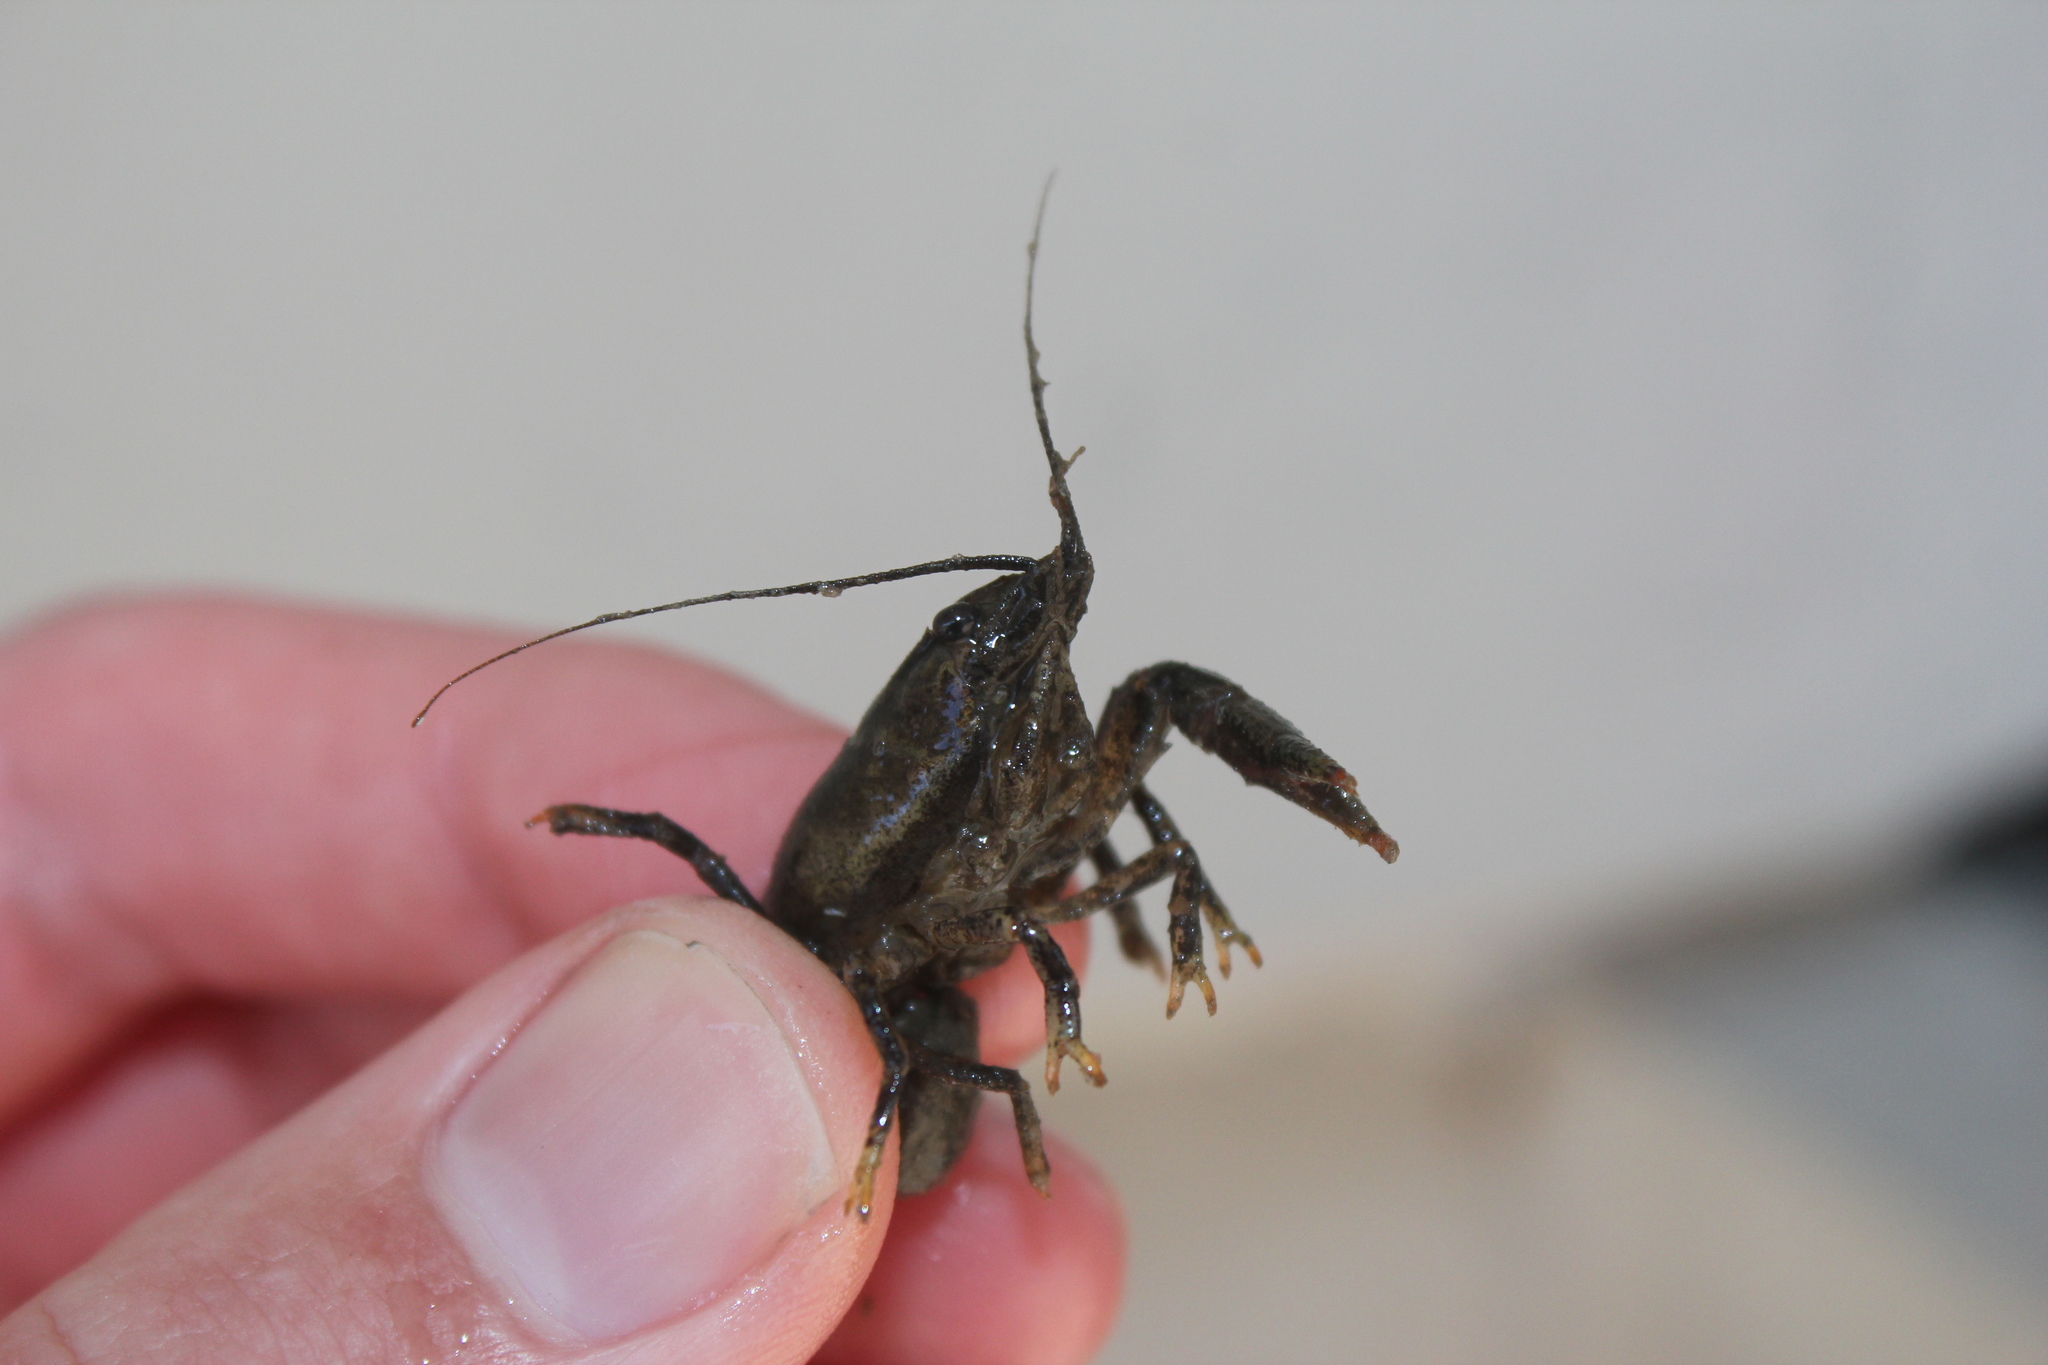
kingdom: Animalia
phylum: Arthropoda
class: Malacostraca
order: Decapoda
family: Cambaridae
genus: Faxonius
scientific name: Faxonius propinquus
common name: Northern clearwater crayfish
